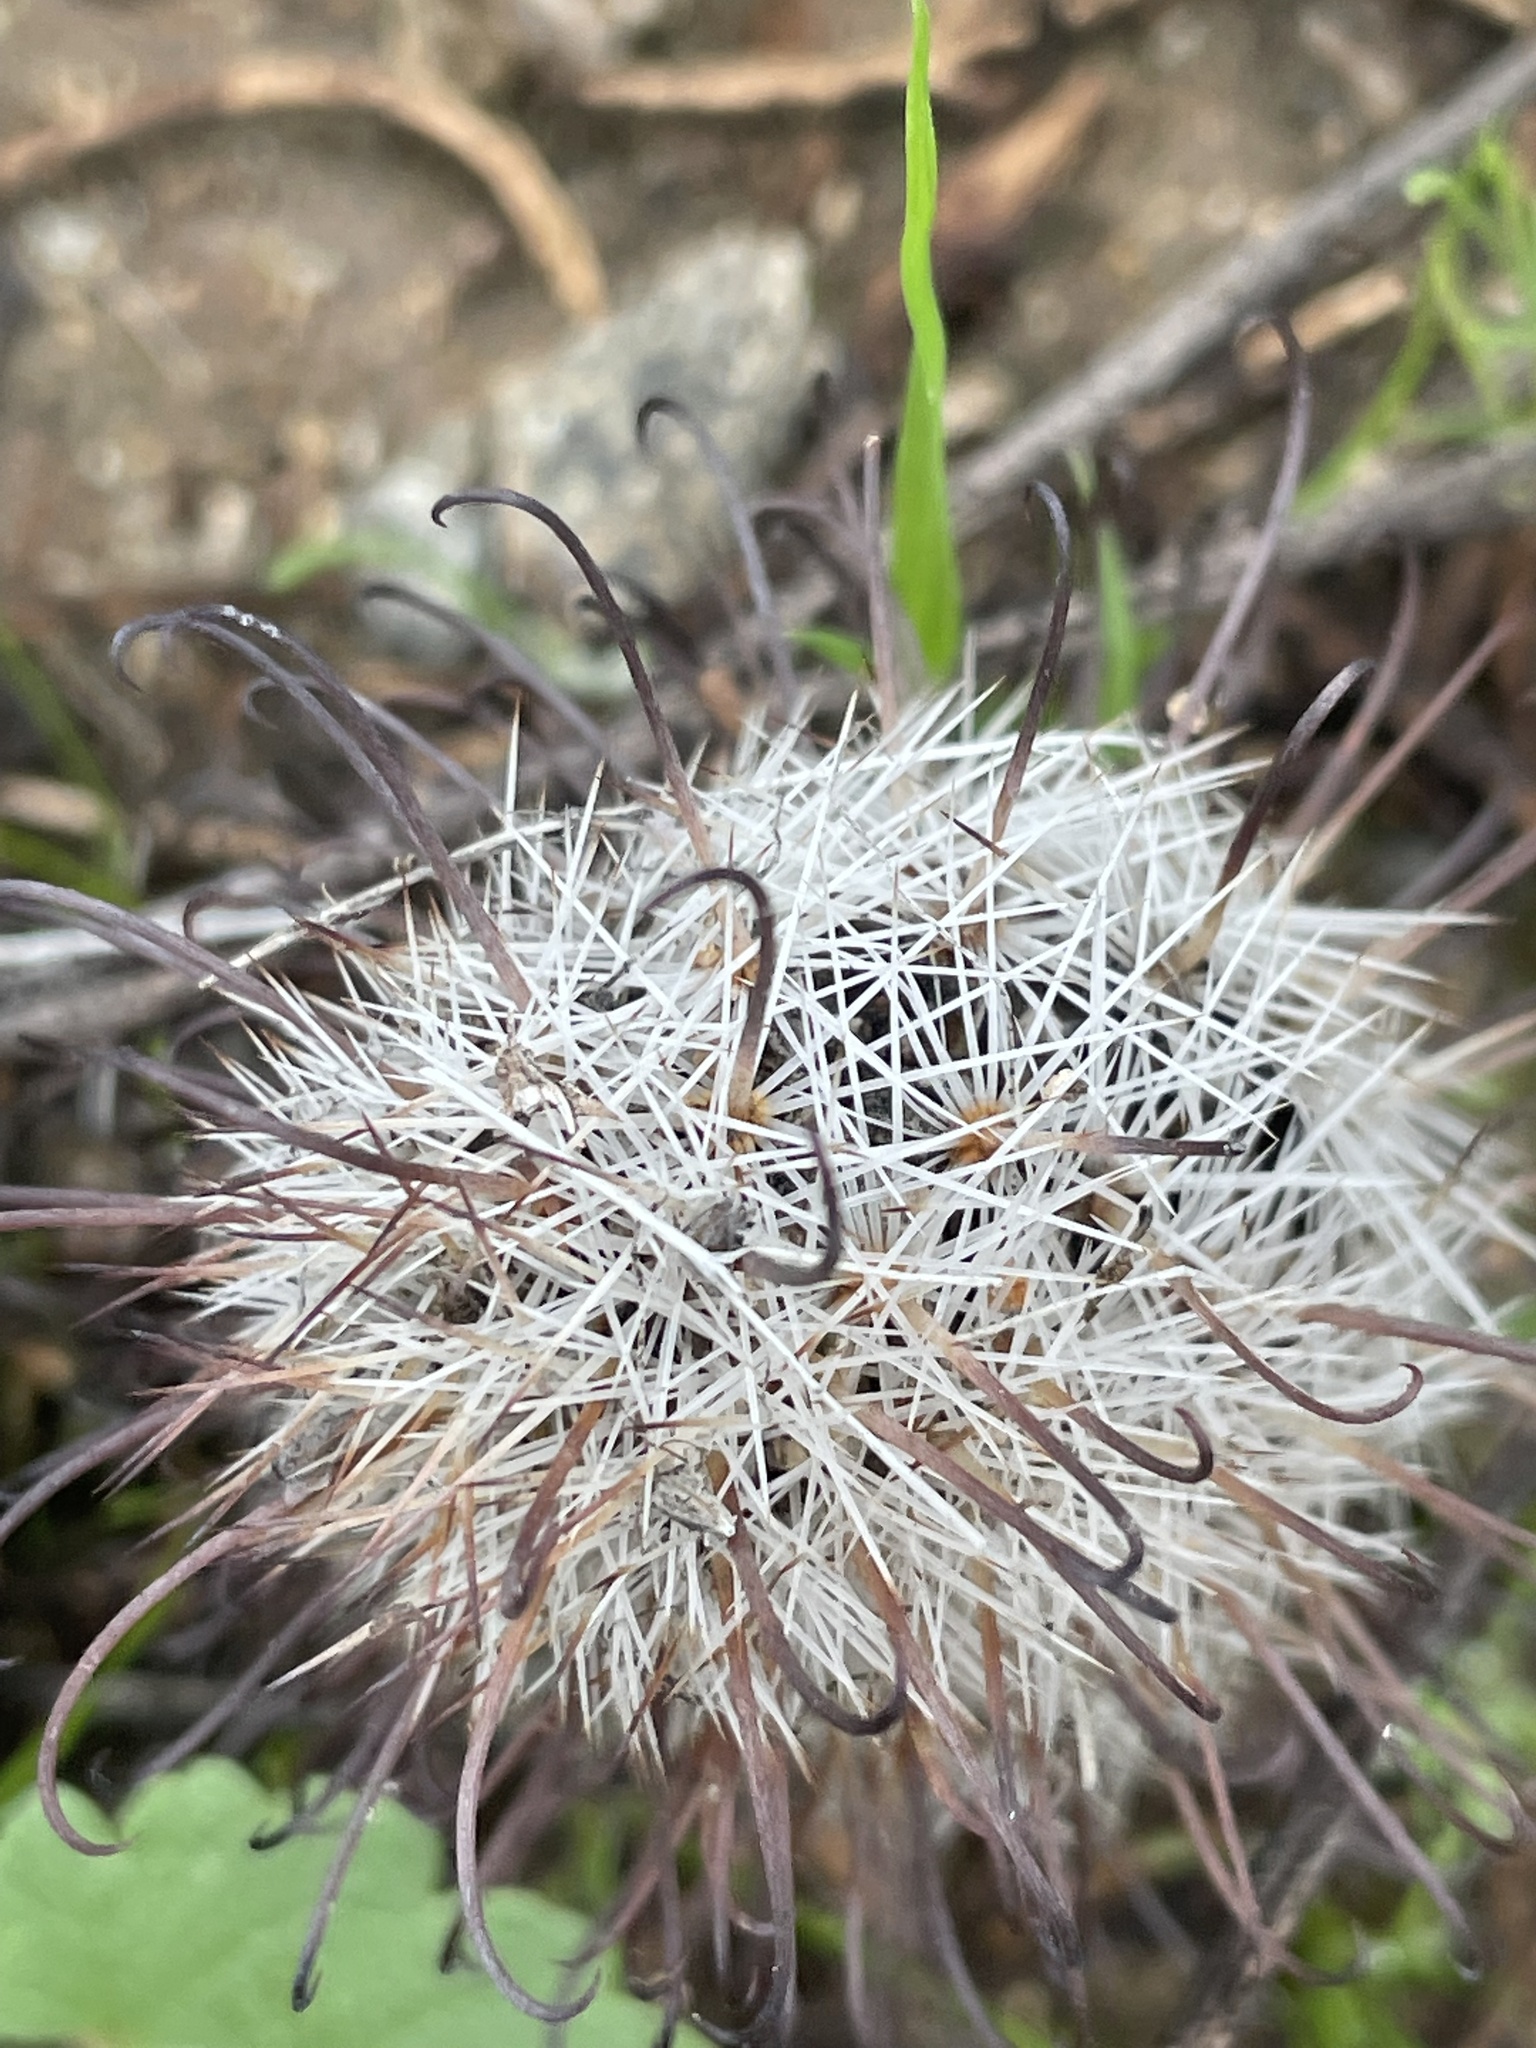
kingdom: Plantae
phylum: Tracheophyta
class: Magnoliopsida
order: Caryophyllales
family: Cactaceae
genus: Cochemiea
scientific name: Cochemiea grahamii
